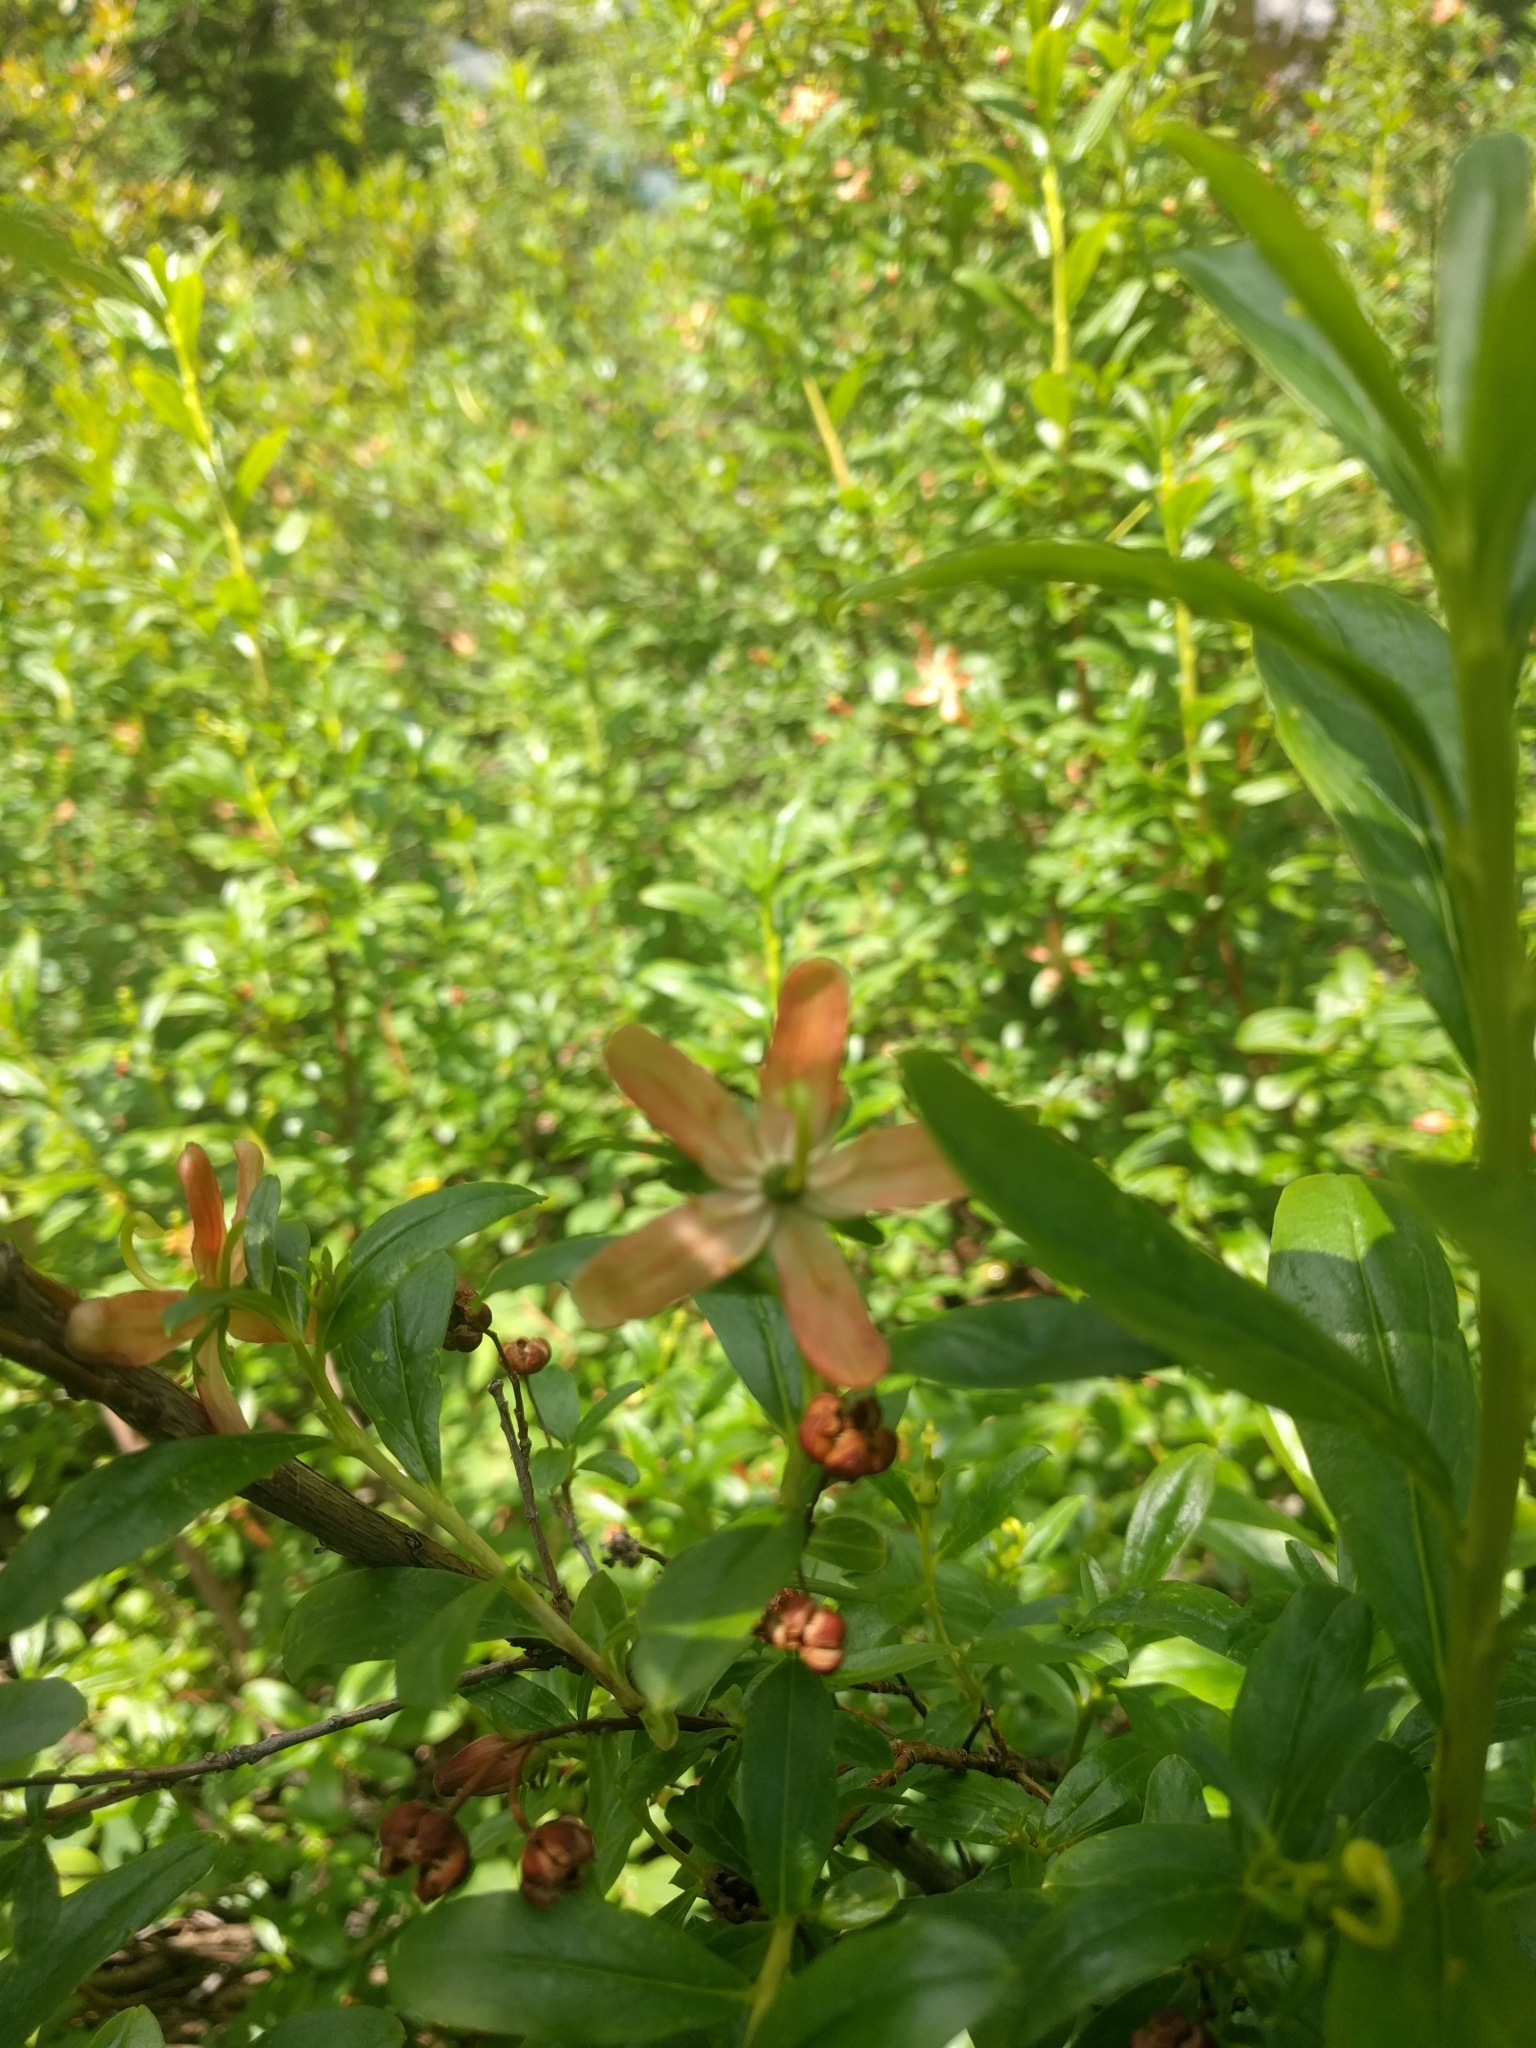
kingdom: Plantae
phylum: Tracheophyta
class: Magnoliopsida
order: Ericales
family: Ericaceae
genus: Elliottia
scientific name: Elliottia pyroliflora
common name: Copperbush
